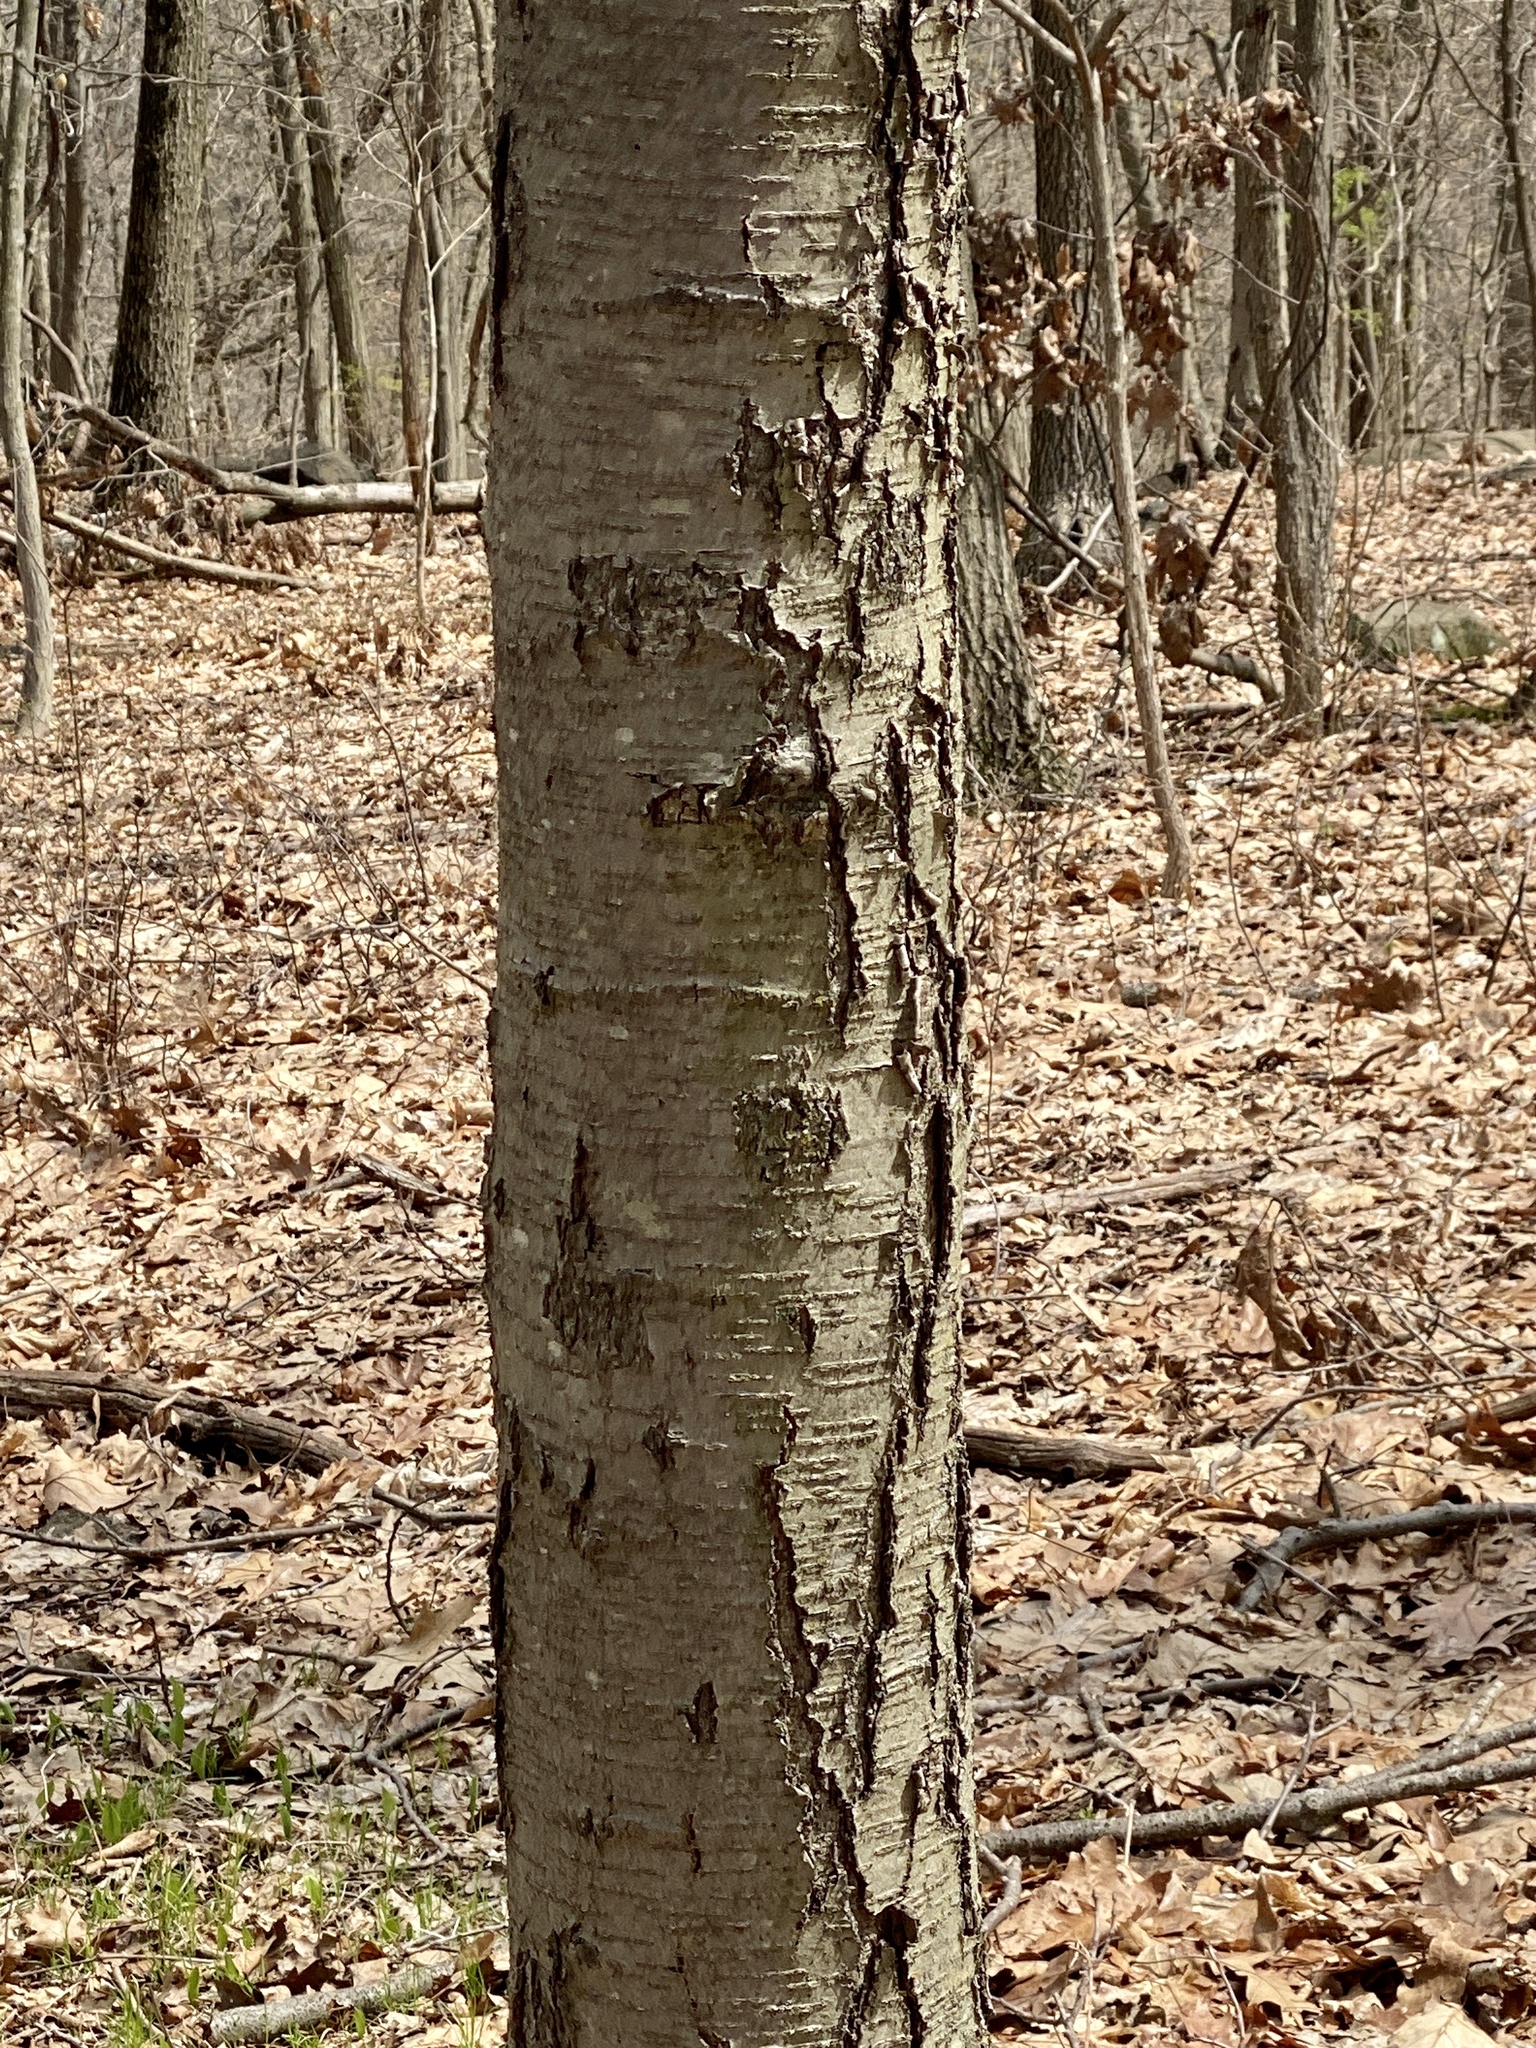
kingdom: Plantae
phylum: Tracheophyta
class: Magnoliopsida
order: Fagales
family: Betulaceae
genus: Betula
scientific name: Betula lenta
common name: Black birch
